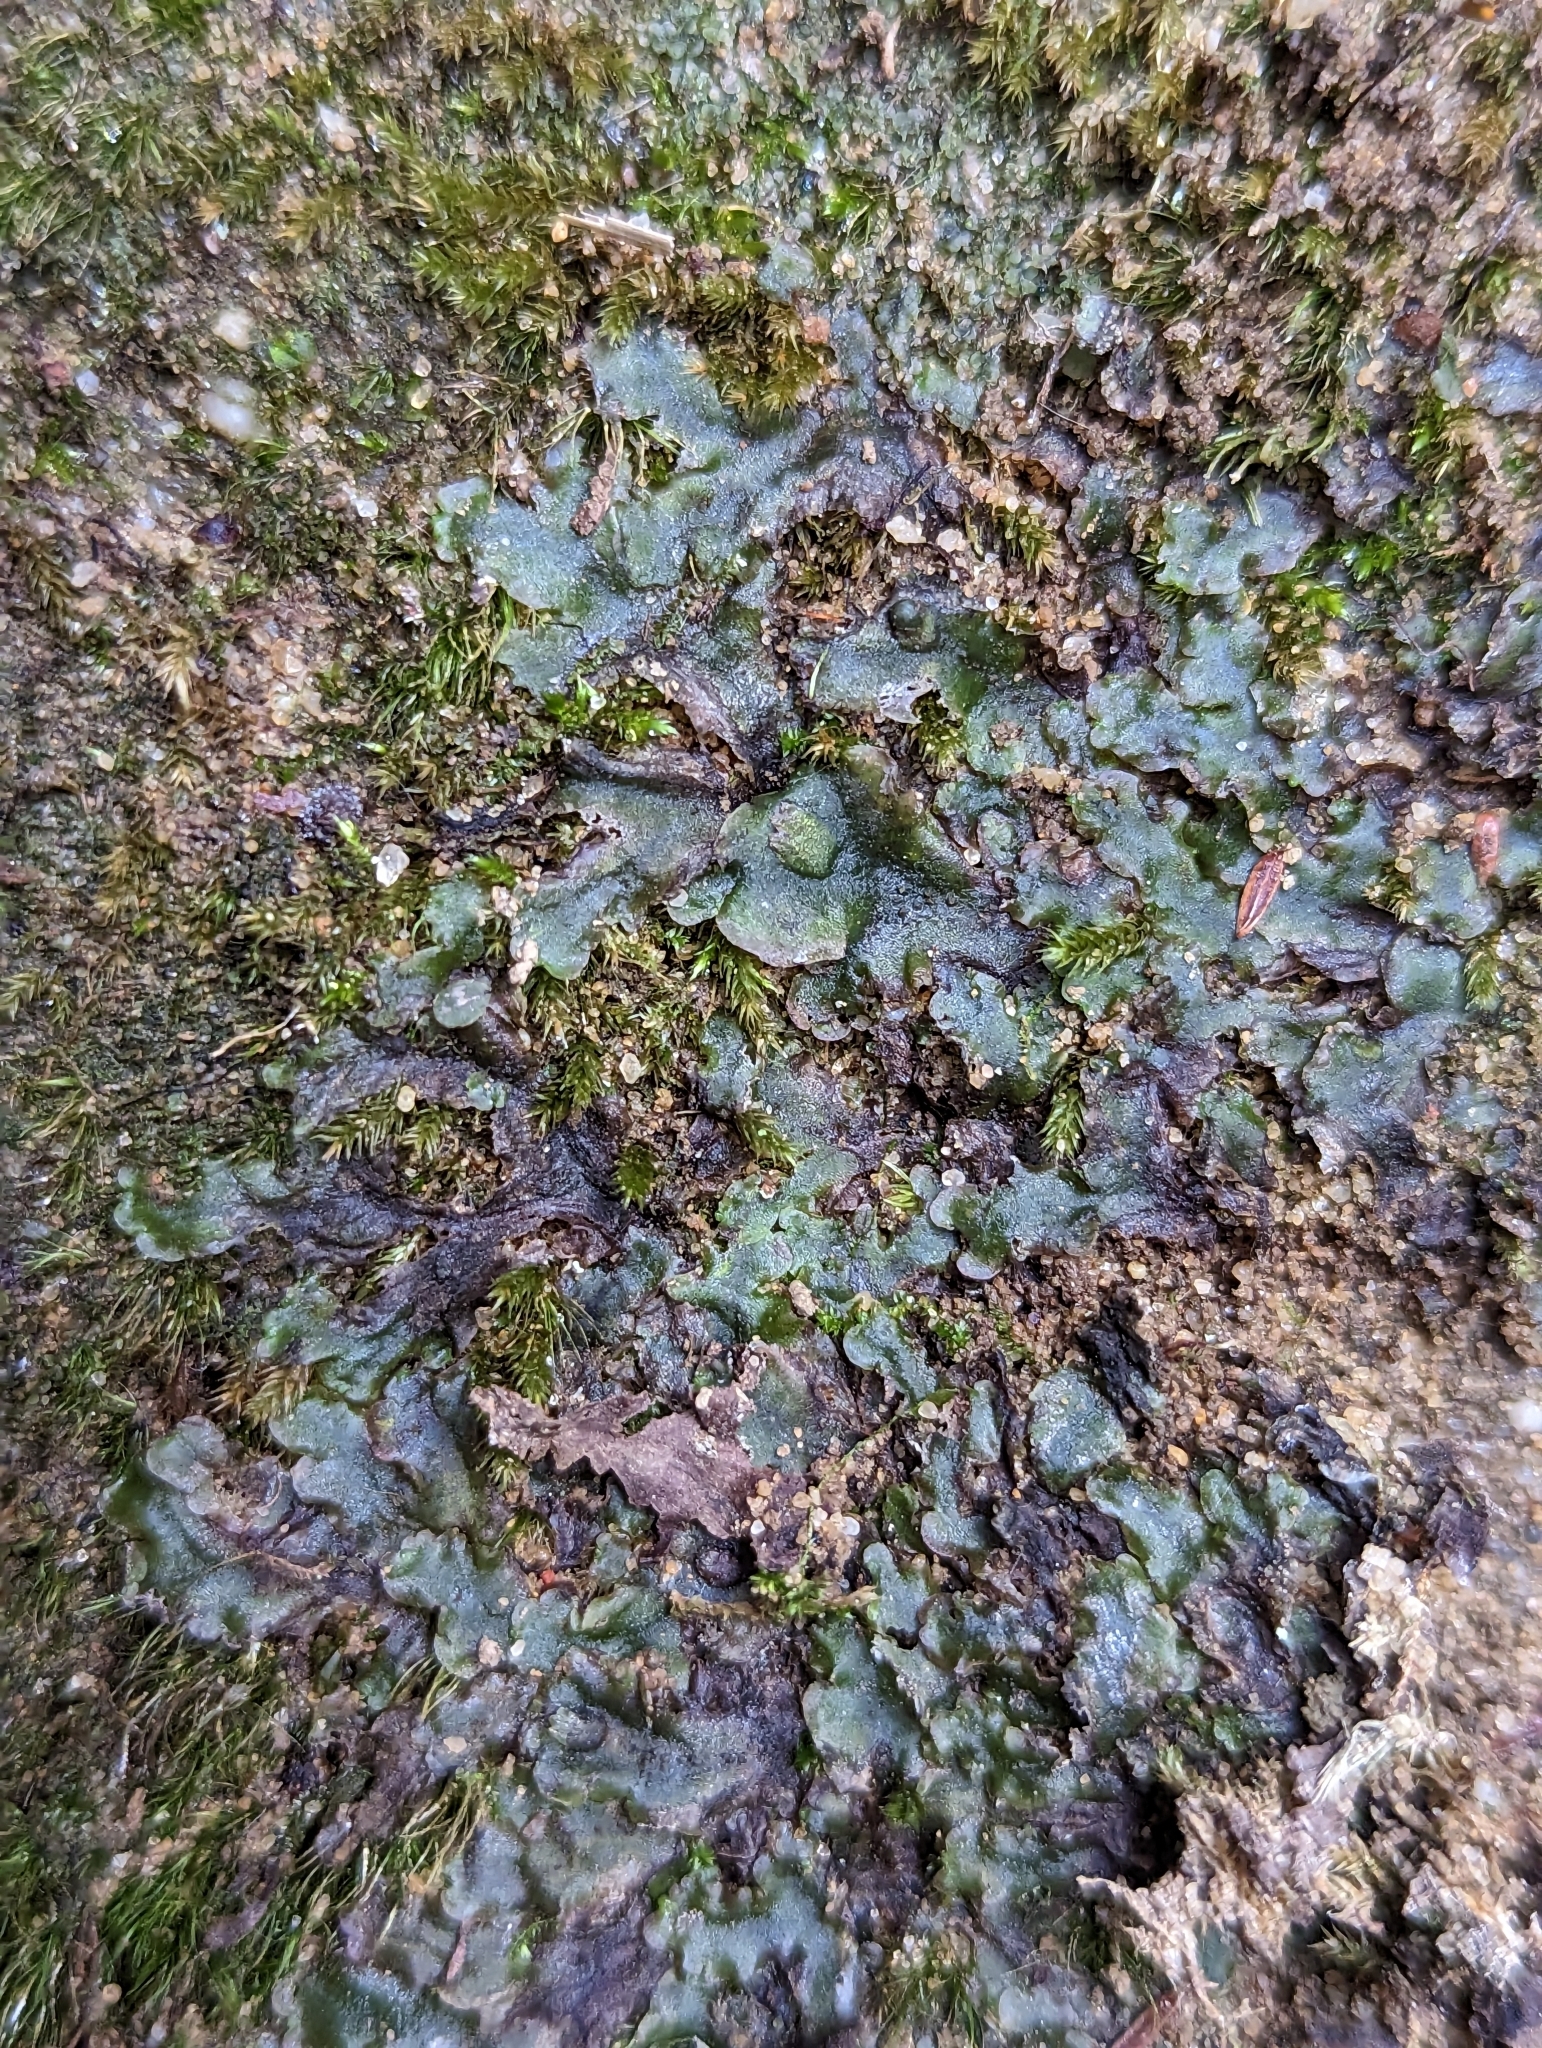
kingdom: Plantae
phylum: Marchantiophyta
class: Jungermanniopsida
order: Pelliales
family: Pelliaceae
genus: Pellia
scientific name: Pellia epiphylla
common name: Common pellia
